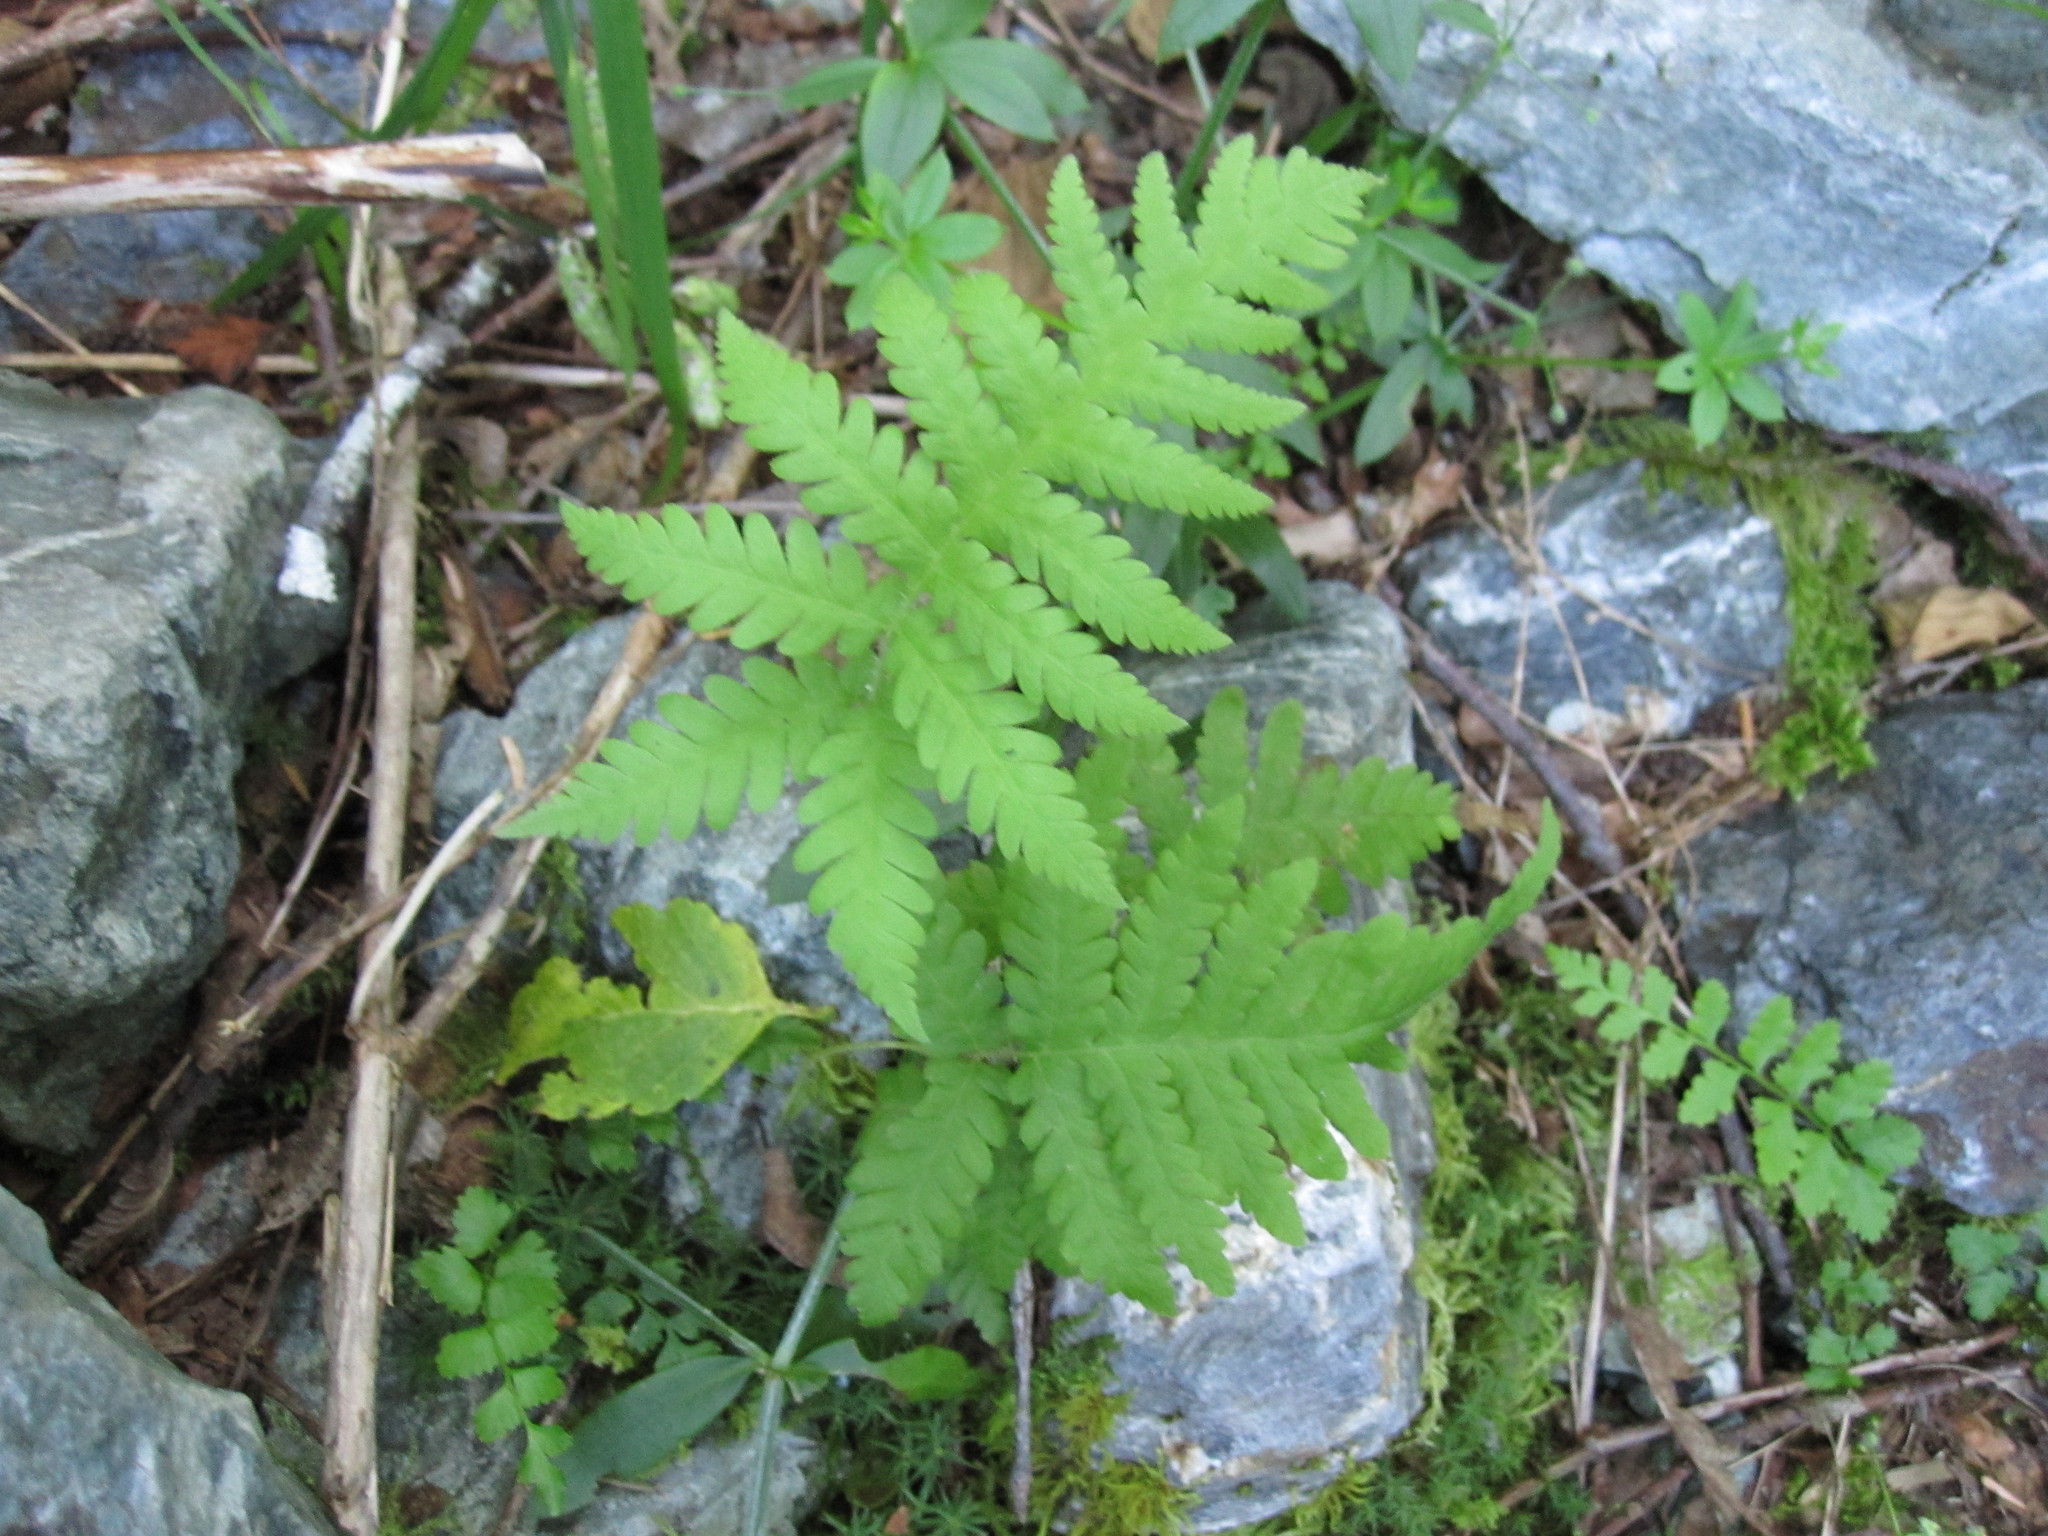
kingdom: Plantae
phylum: Tracheophyta
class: Polypodiopsida
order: Polypodiales
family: Thelypteridaceae
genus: Phegopteris
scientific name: Phegopteris connectilis
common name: Beech fern
